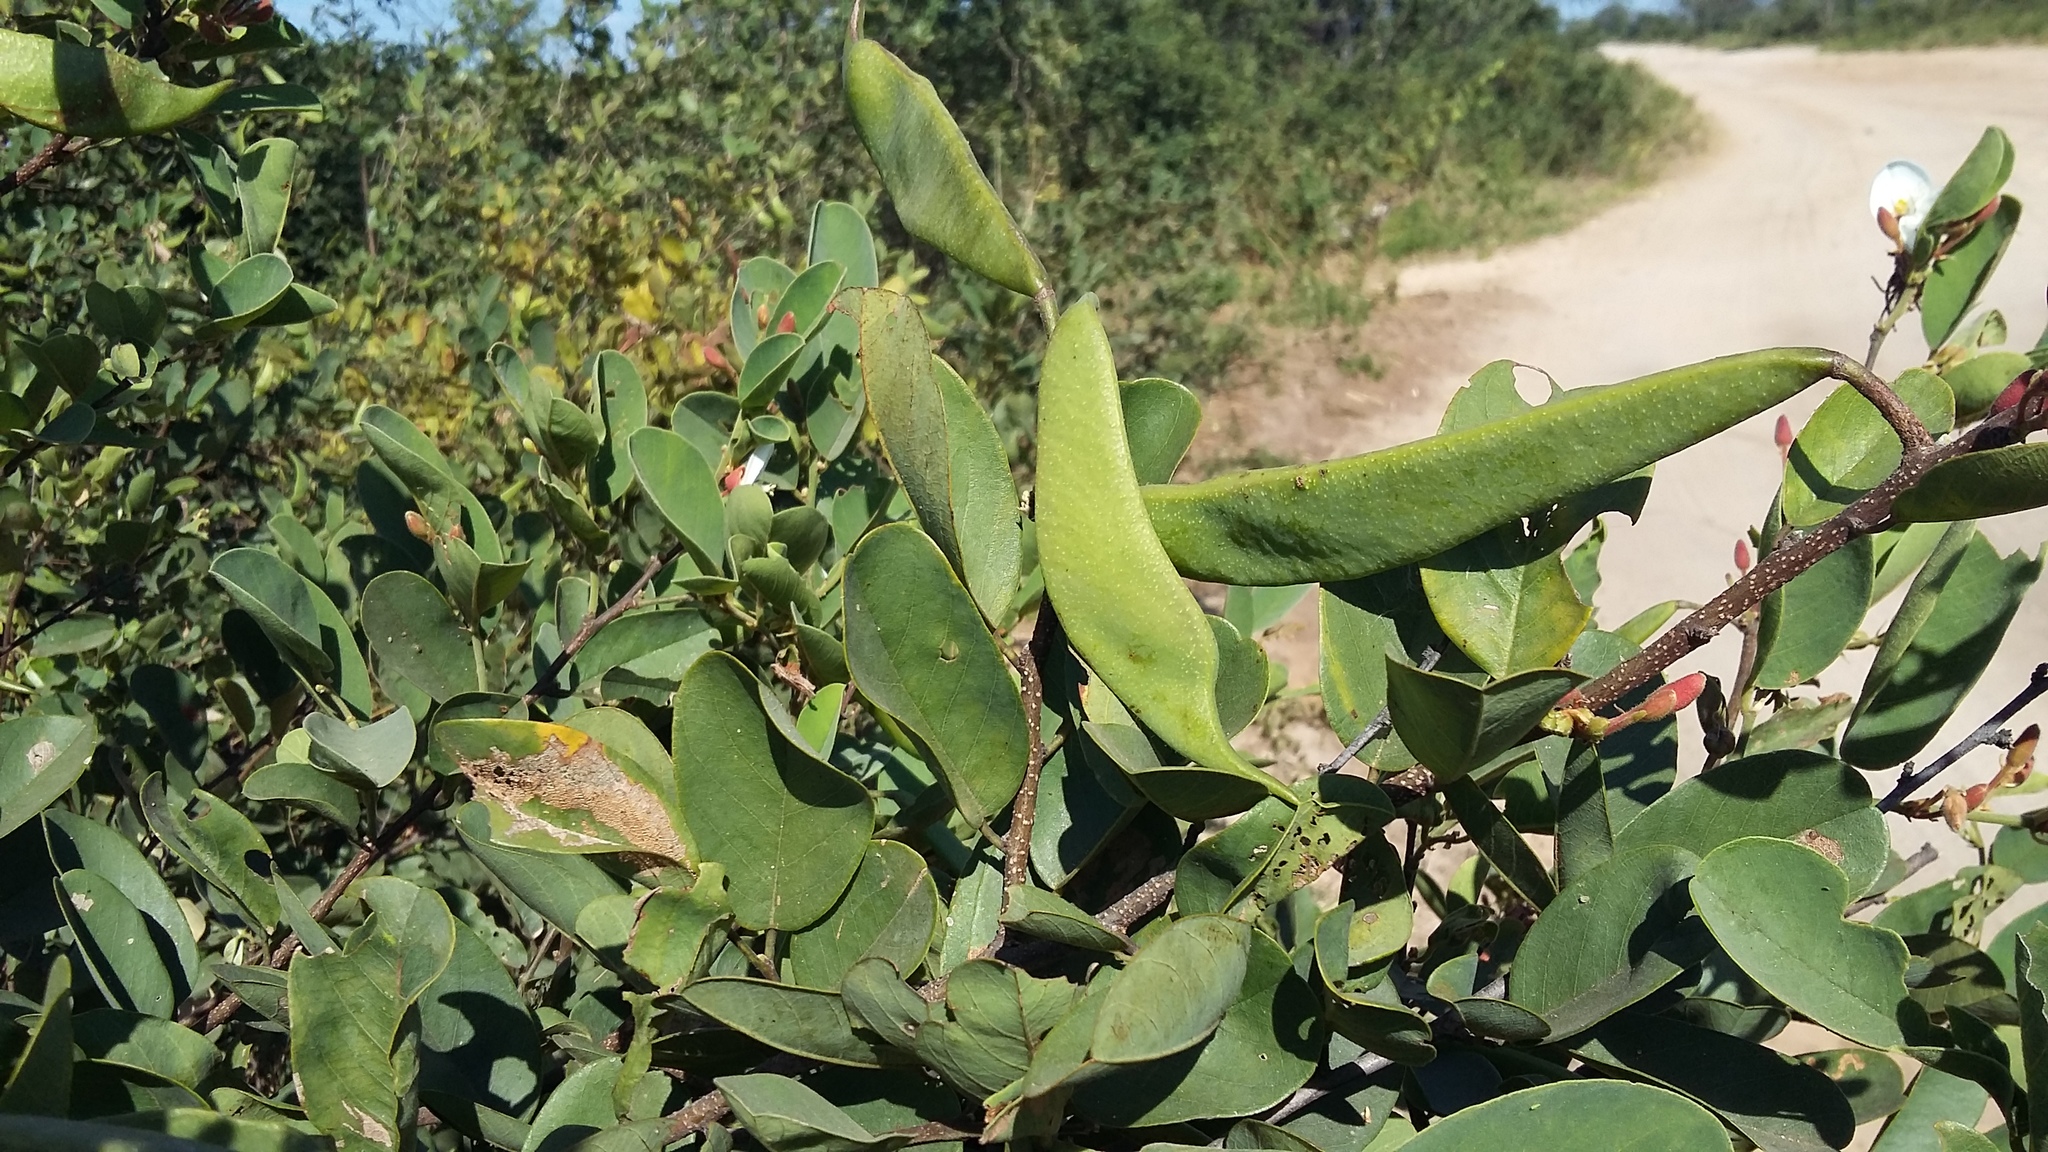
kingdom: Plantae
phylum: Tracheophyta
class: Magnoliopsida
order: Fabales
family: Fabaceae
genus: Baphia
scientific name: Baphia massaiensis
